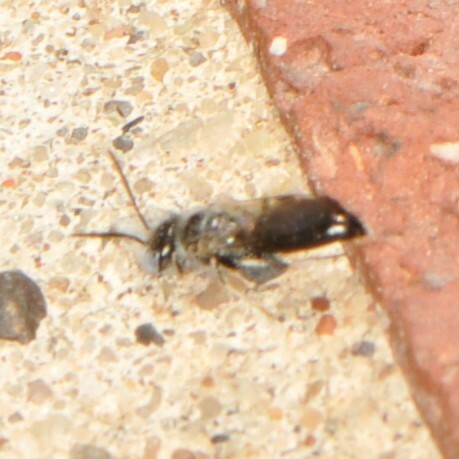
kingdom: Animalia
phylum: Arthropoda
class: Insecta
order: Hymenoptera
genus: Hypomacrotera
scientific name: Hypomacrotera
